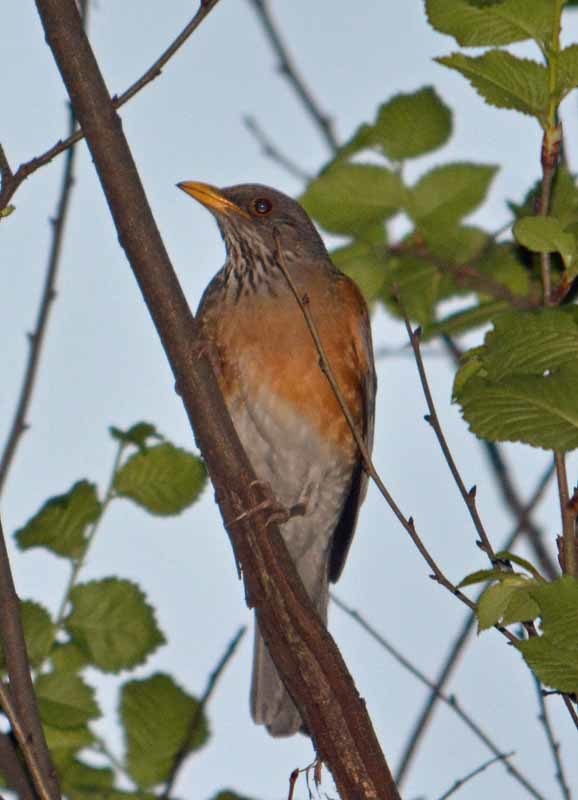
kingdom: Animalia
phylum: Chordata
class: Aves
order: Passeriformes
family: Turdidae
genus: Turdus
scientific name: Turdus rufopalliatus
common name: Rufous-backed robin
